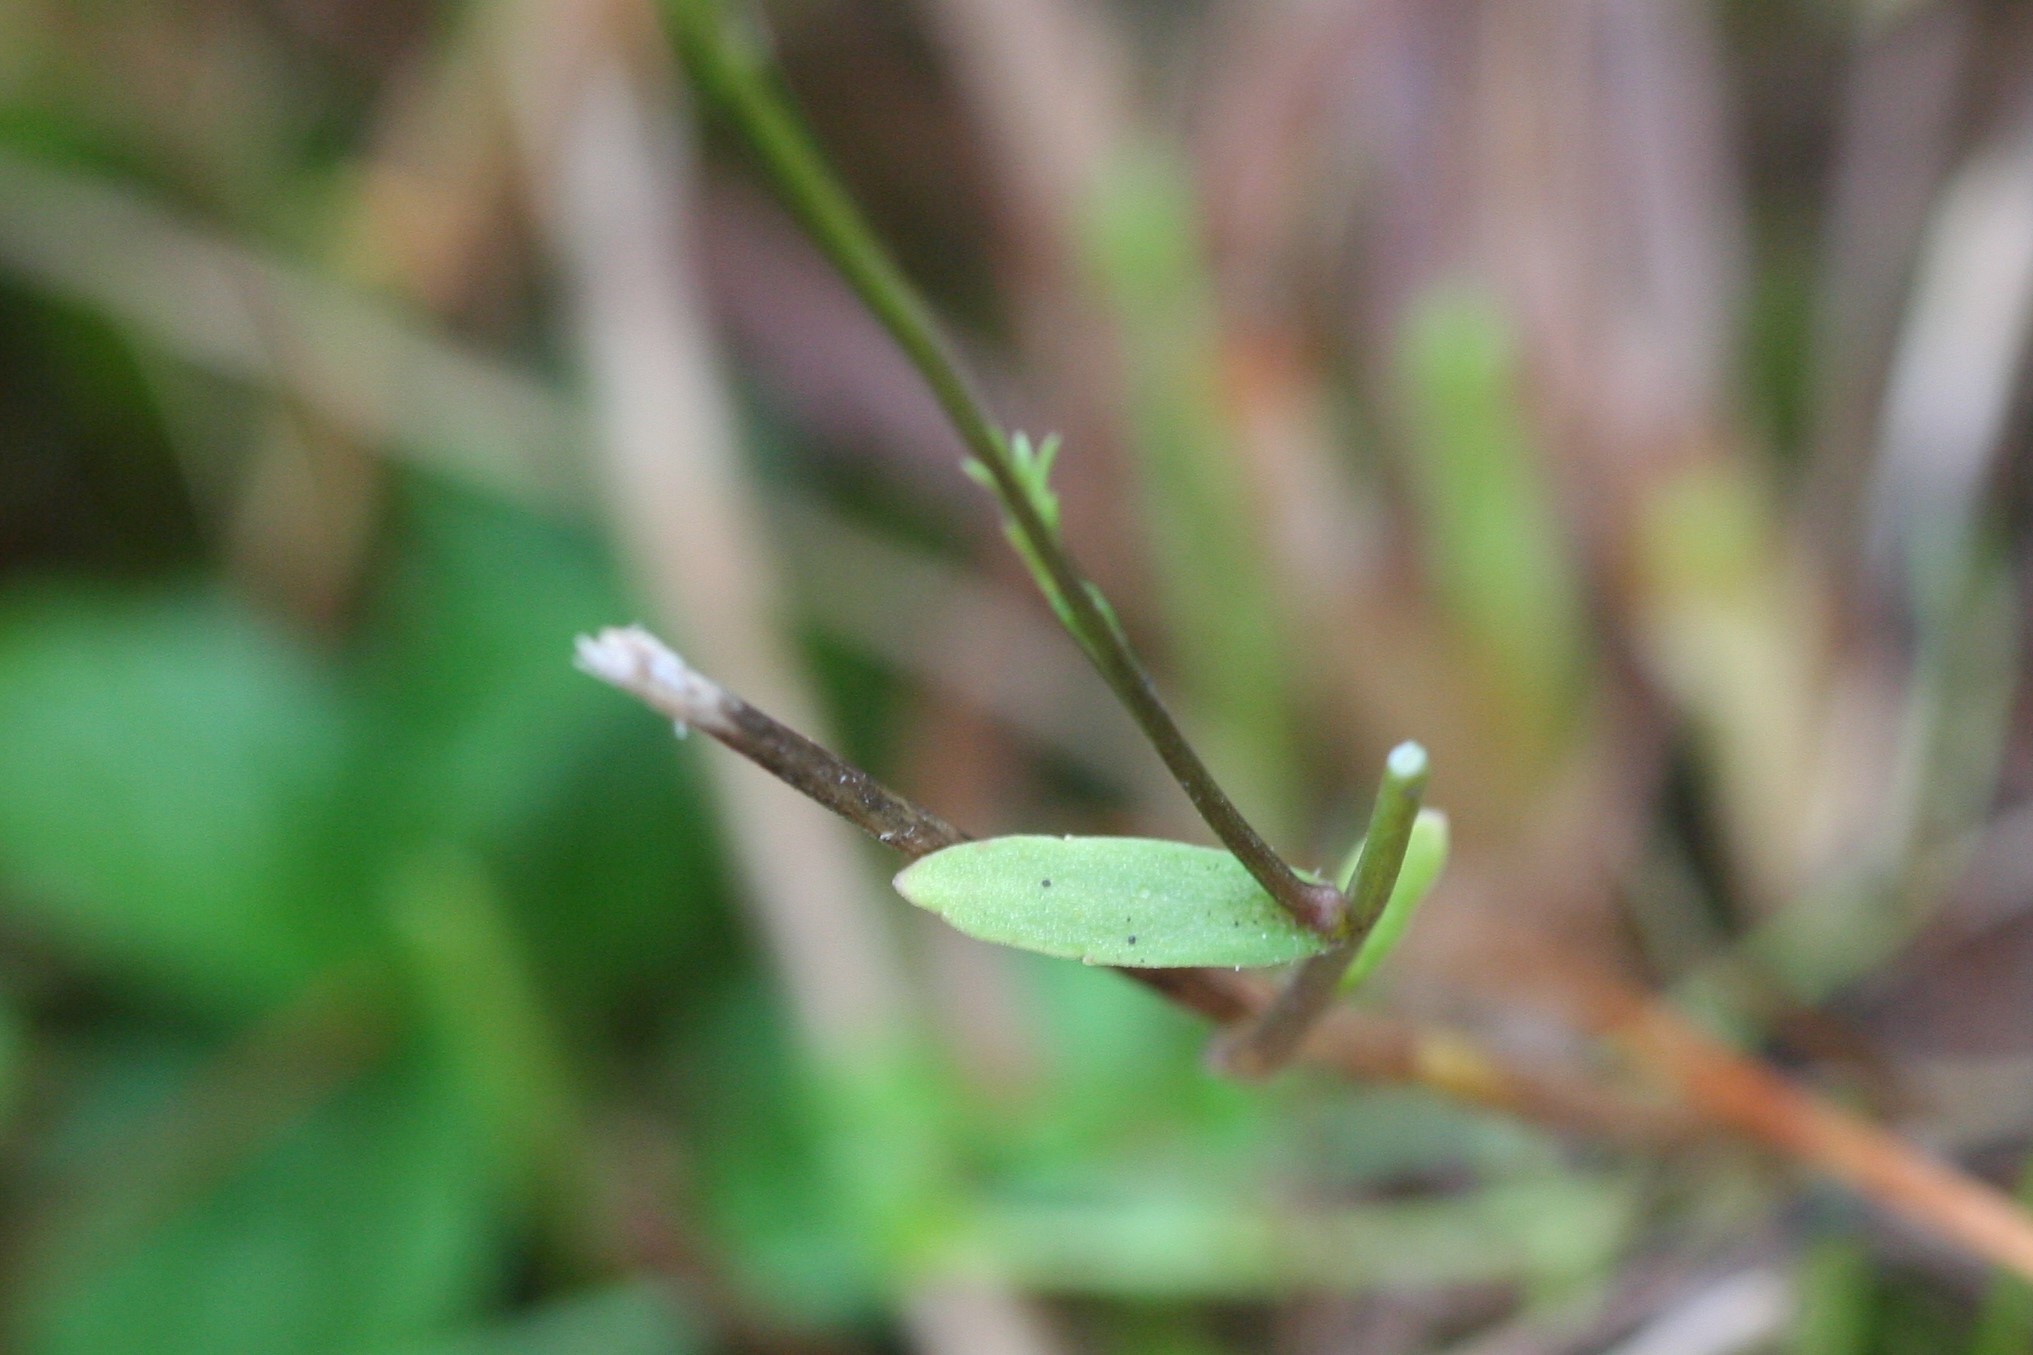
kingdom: Plantae
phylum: Tracheophyta
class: Magnoliopsida
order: Asterales
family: Campanulaceae
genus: Campanula
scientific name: Campanula patula
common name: Spreading bellflower
